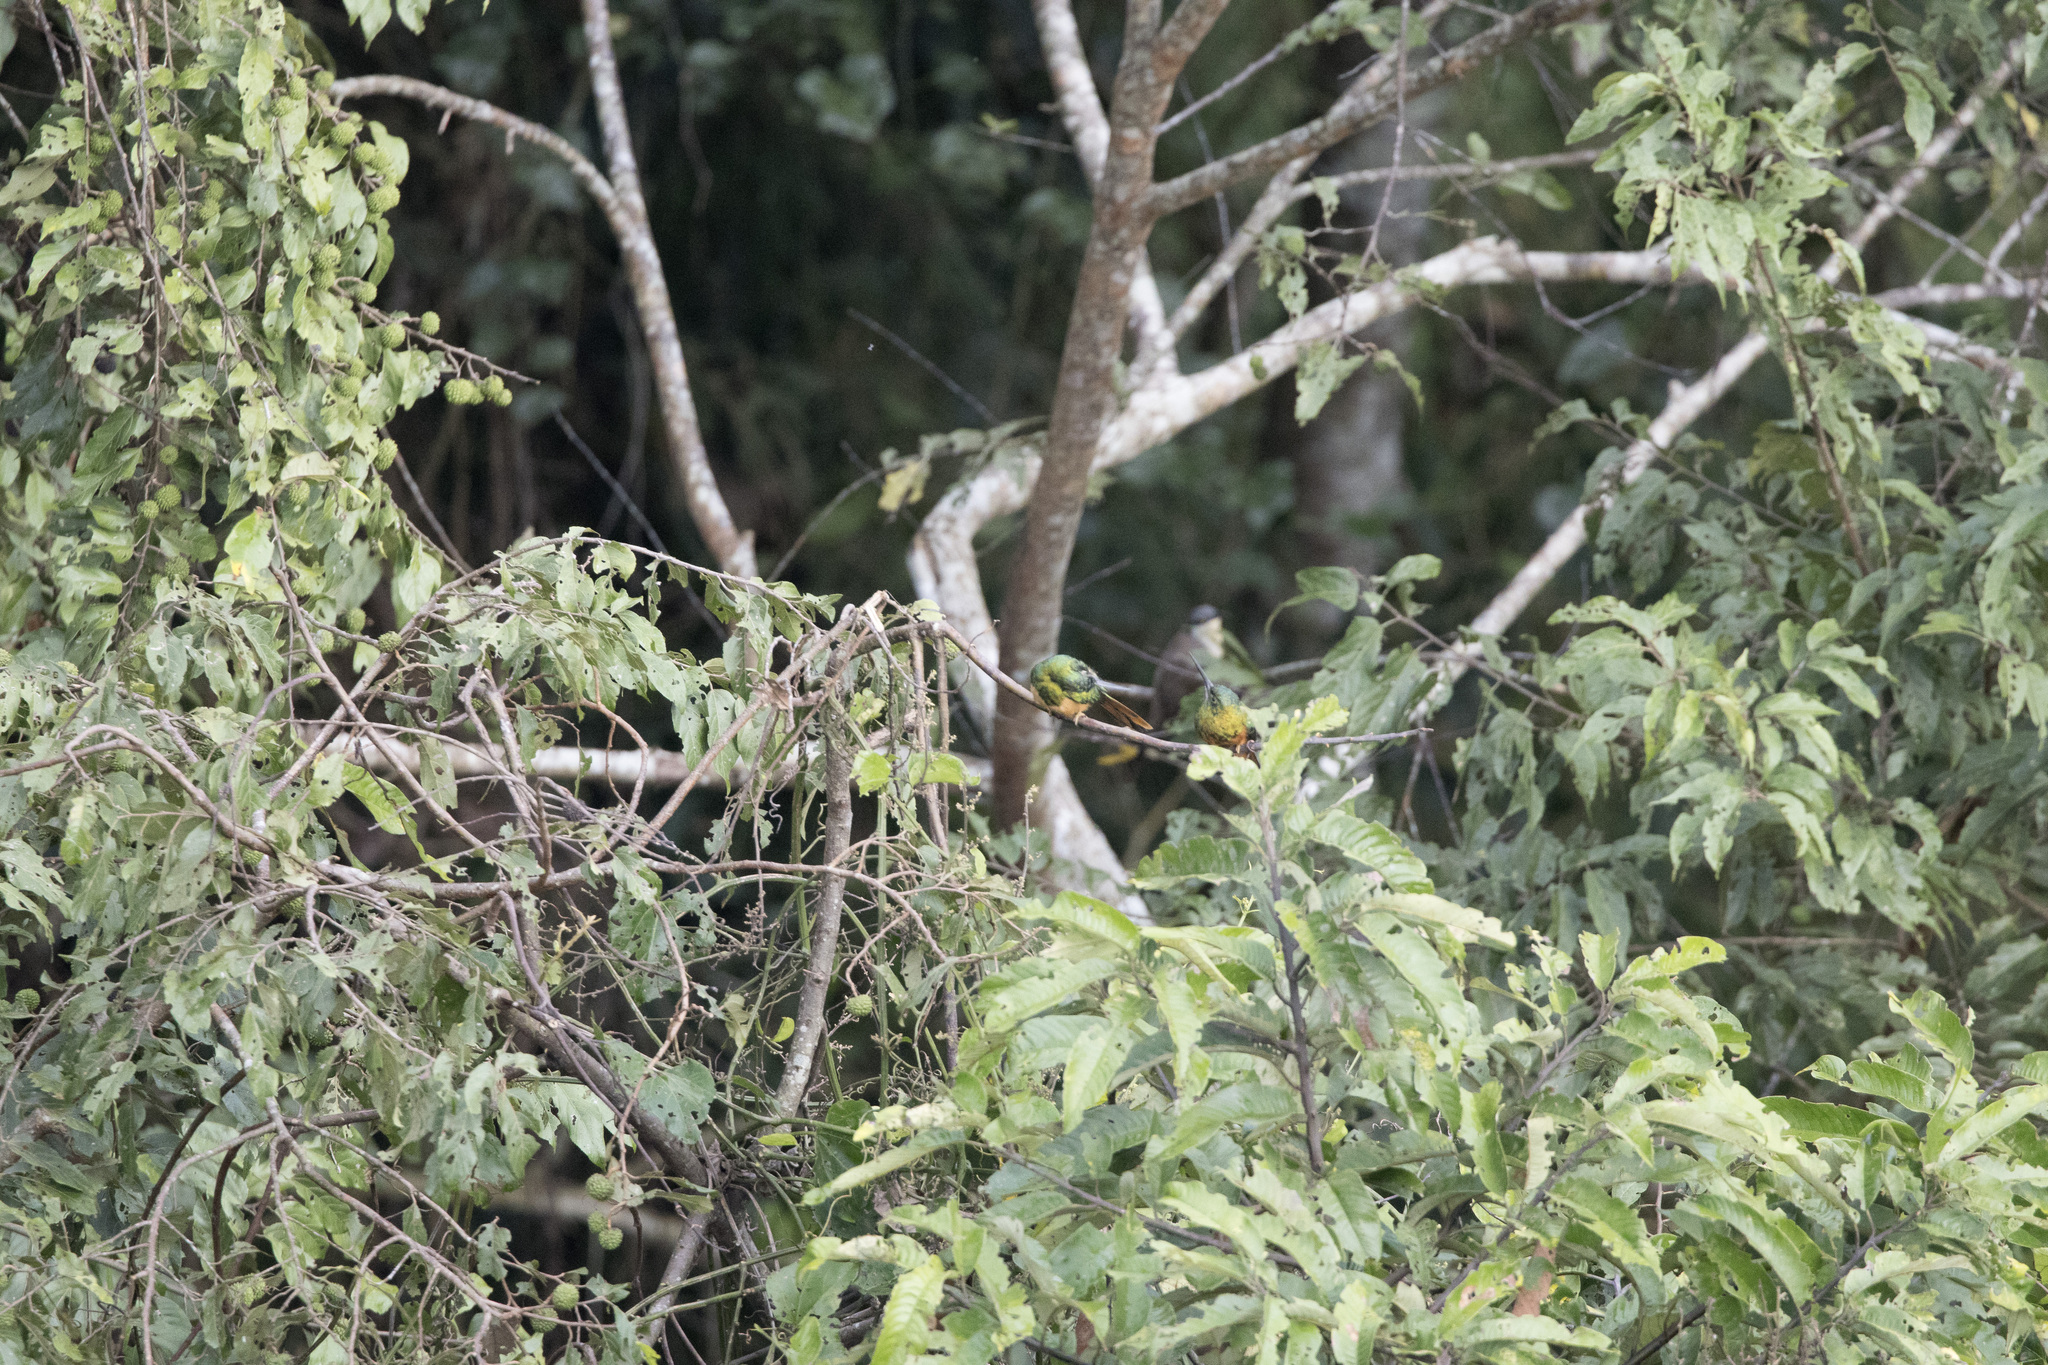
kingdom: Animalia
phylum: Chordata
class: Aves
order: Piciformes
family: Galbulidae
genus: Galbula
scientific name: Galbula cyanescens
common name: Bluish-fronted jacamar
